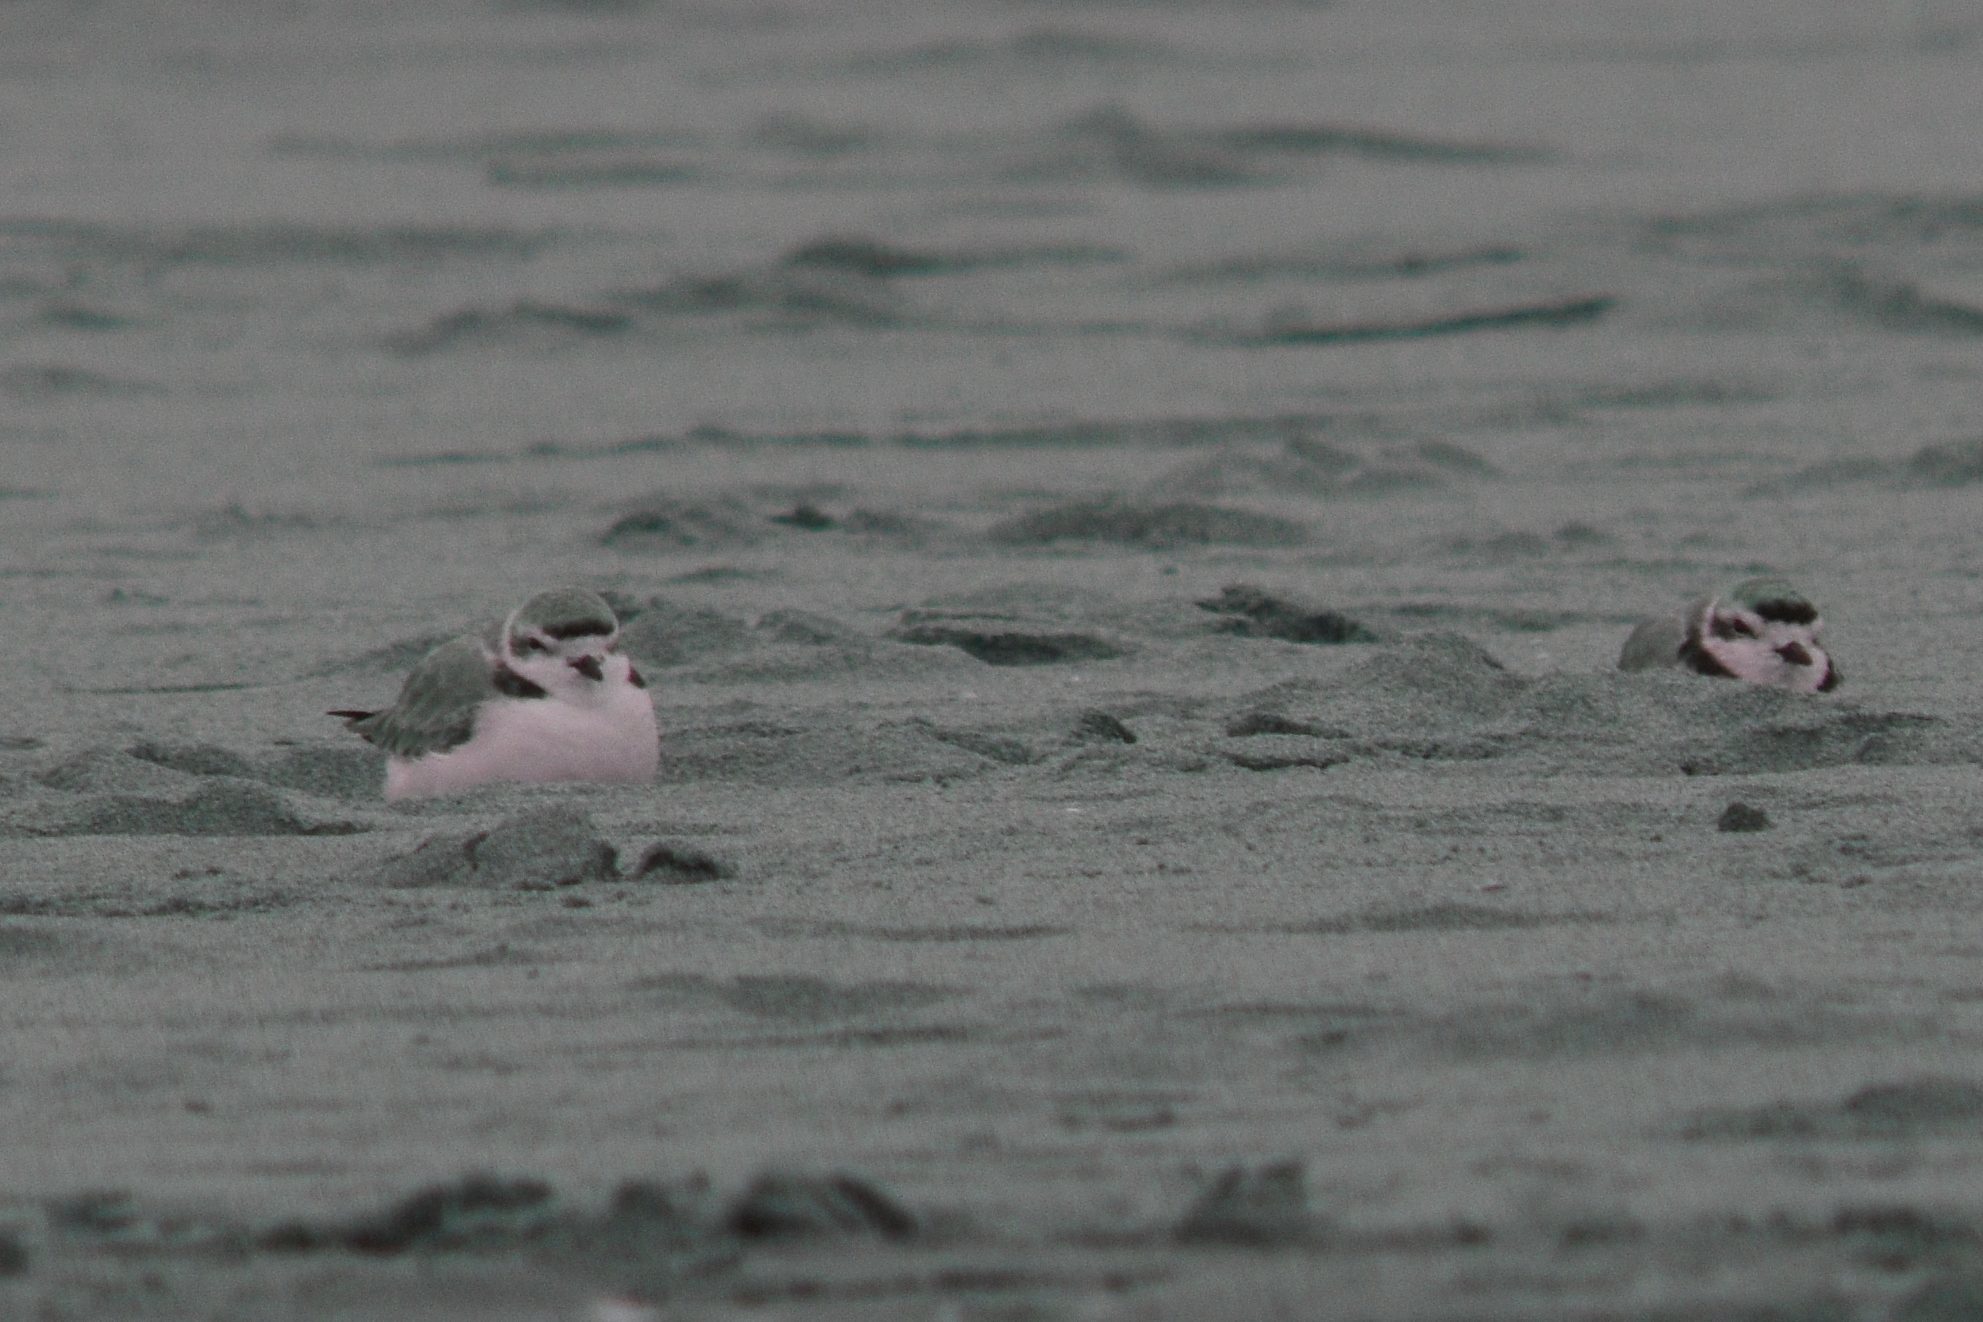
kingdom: Animalia
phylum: Chordata
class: Aves
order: Charadriiformes
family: Charadriidae
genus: Anarhynchus
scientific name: Anarhynchus
